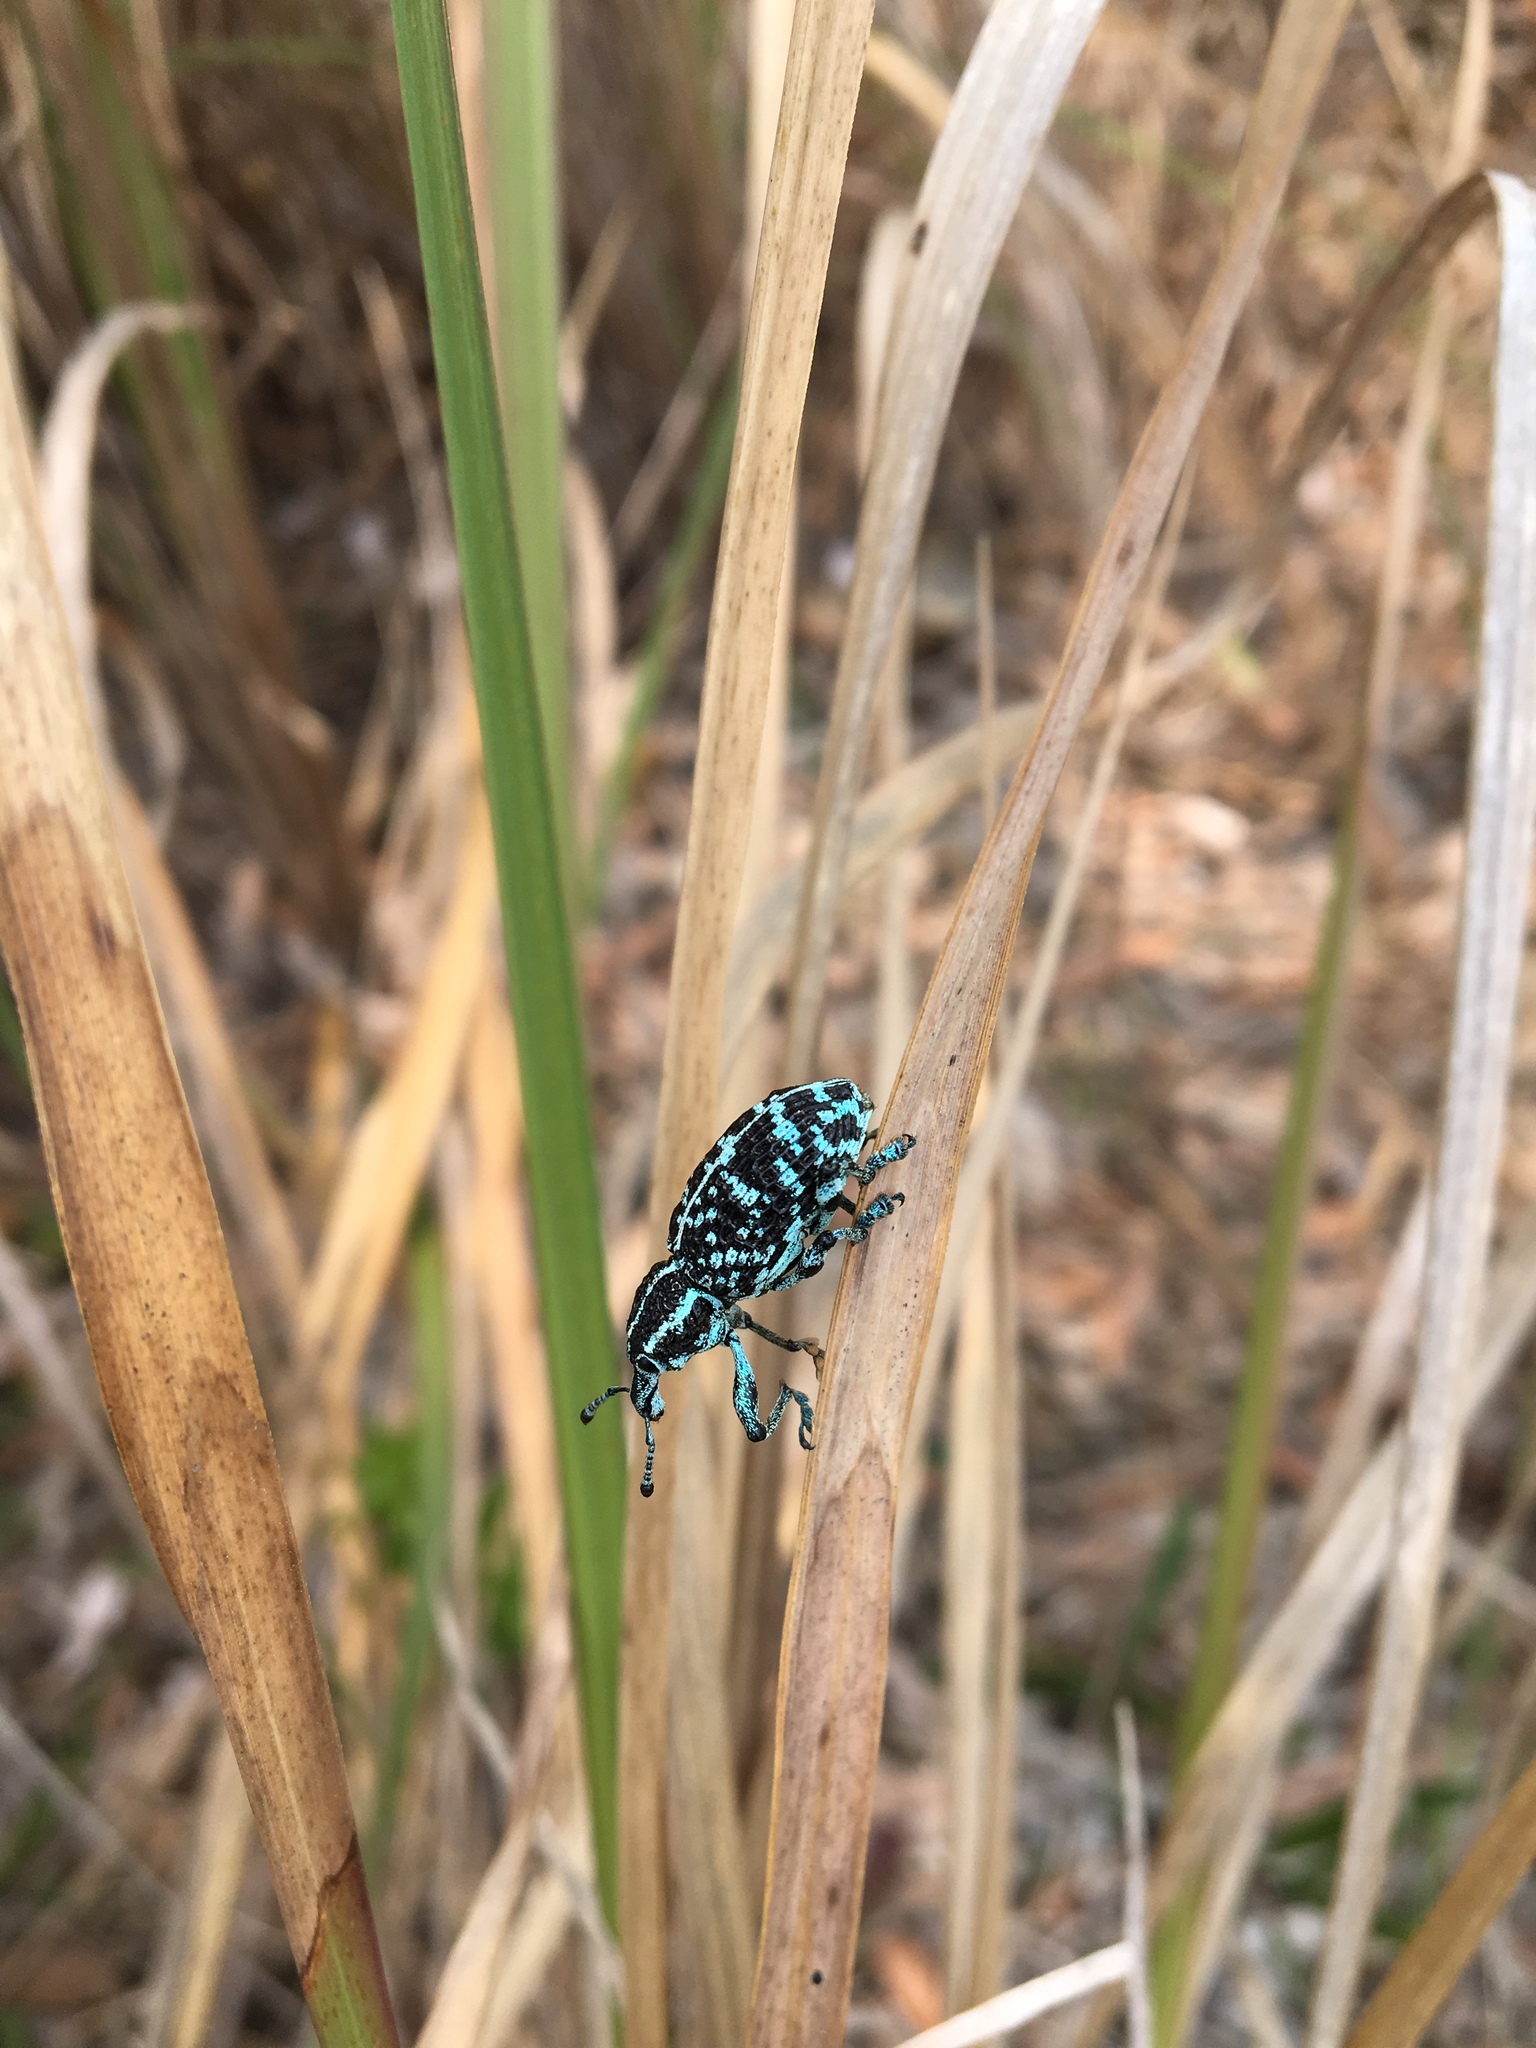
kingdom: Animalia
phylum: Arthropoda
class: Insecta
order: Coleoptera
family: Curculionidae
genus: Chrysolopus
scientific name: Chrysolopus spectabilis
